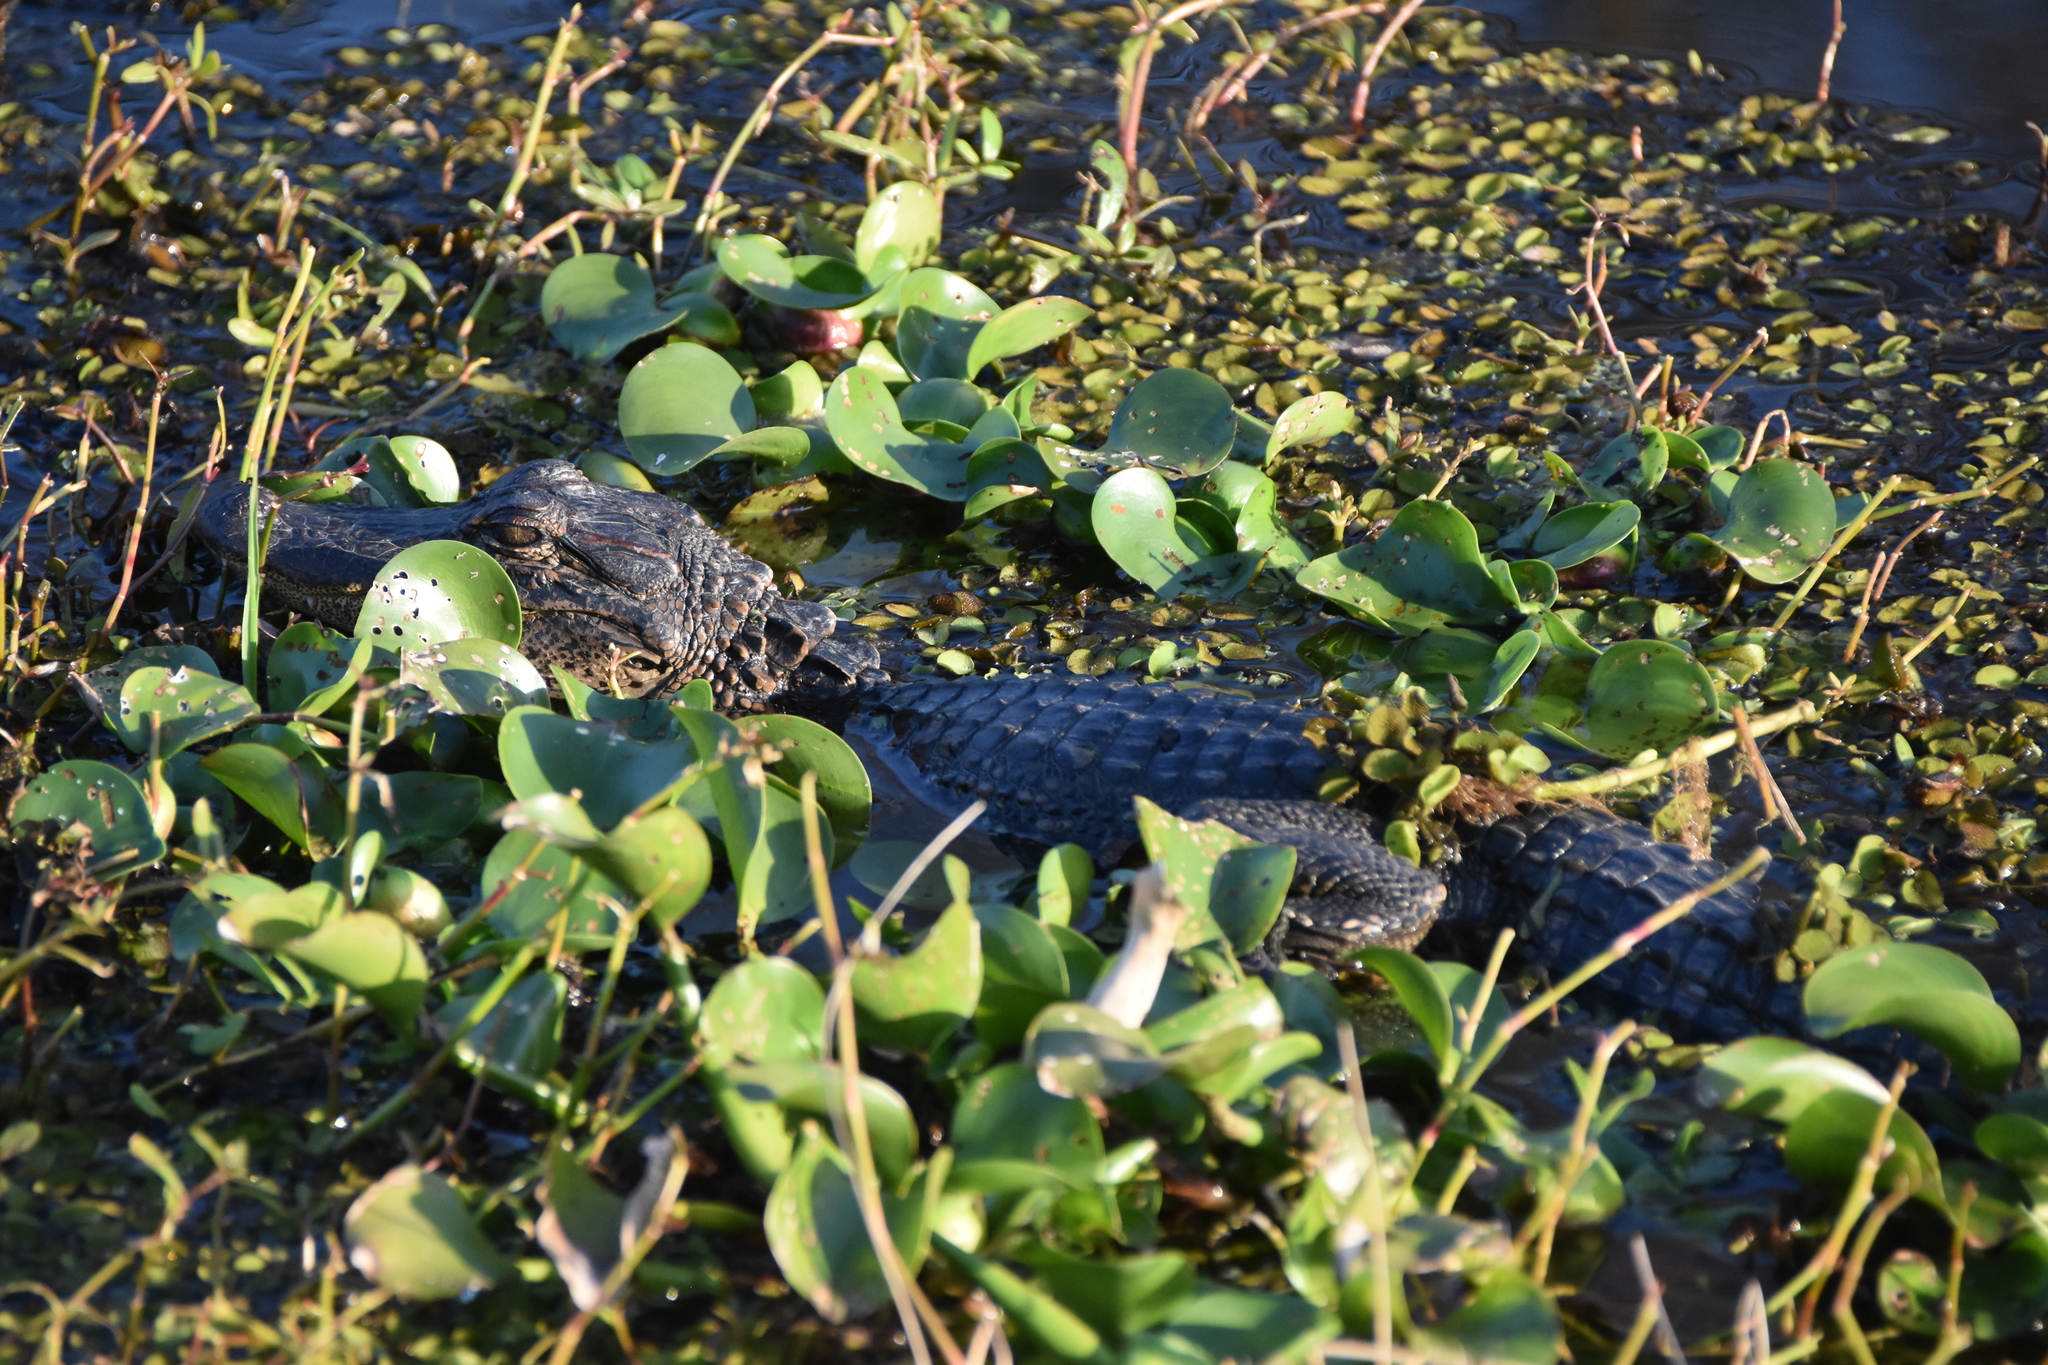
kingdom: Animalia
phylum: Chordata
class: Crocodylia
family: Alligatoridae
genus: Alligator
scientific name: Alligator mississippiensis
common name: American alligator
